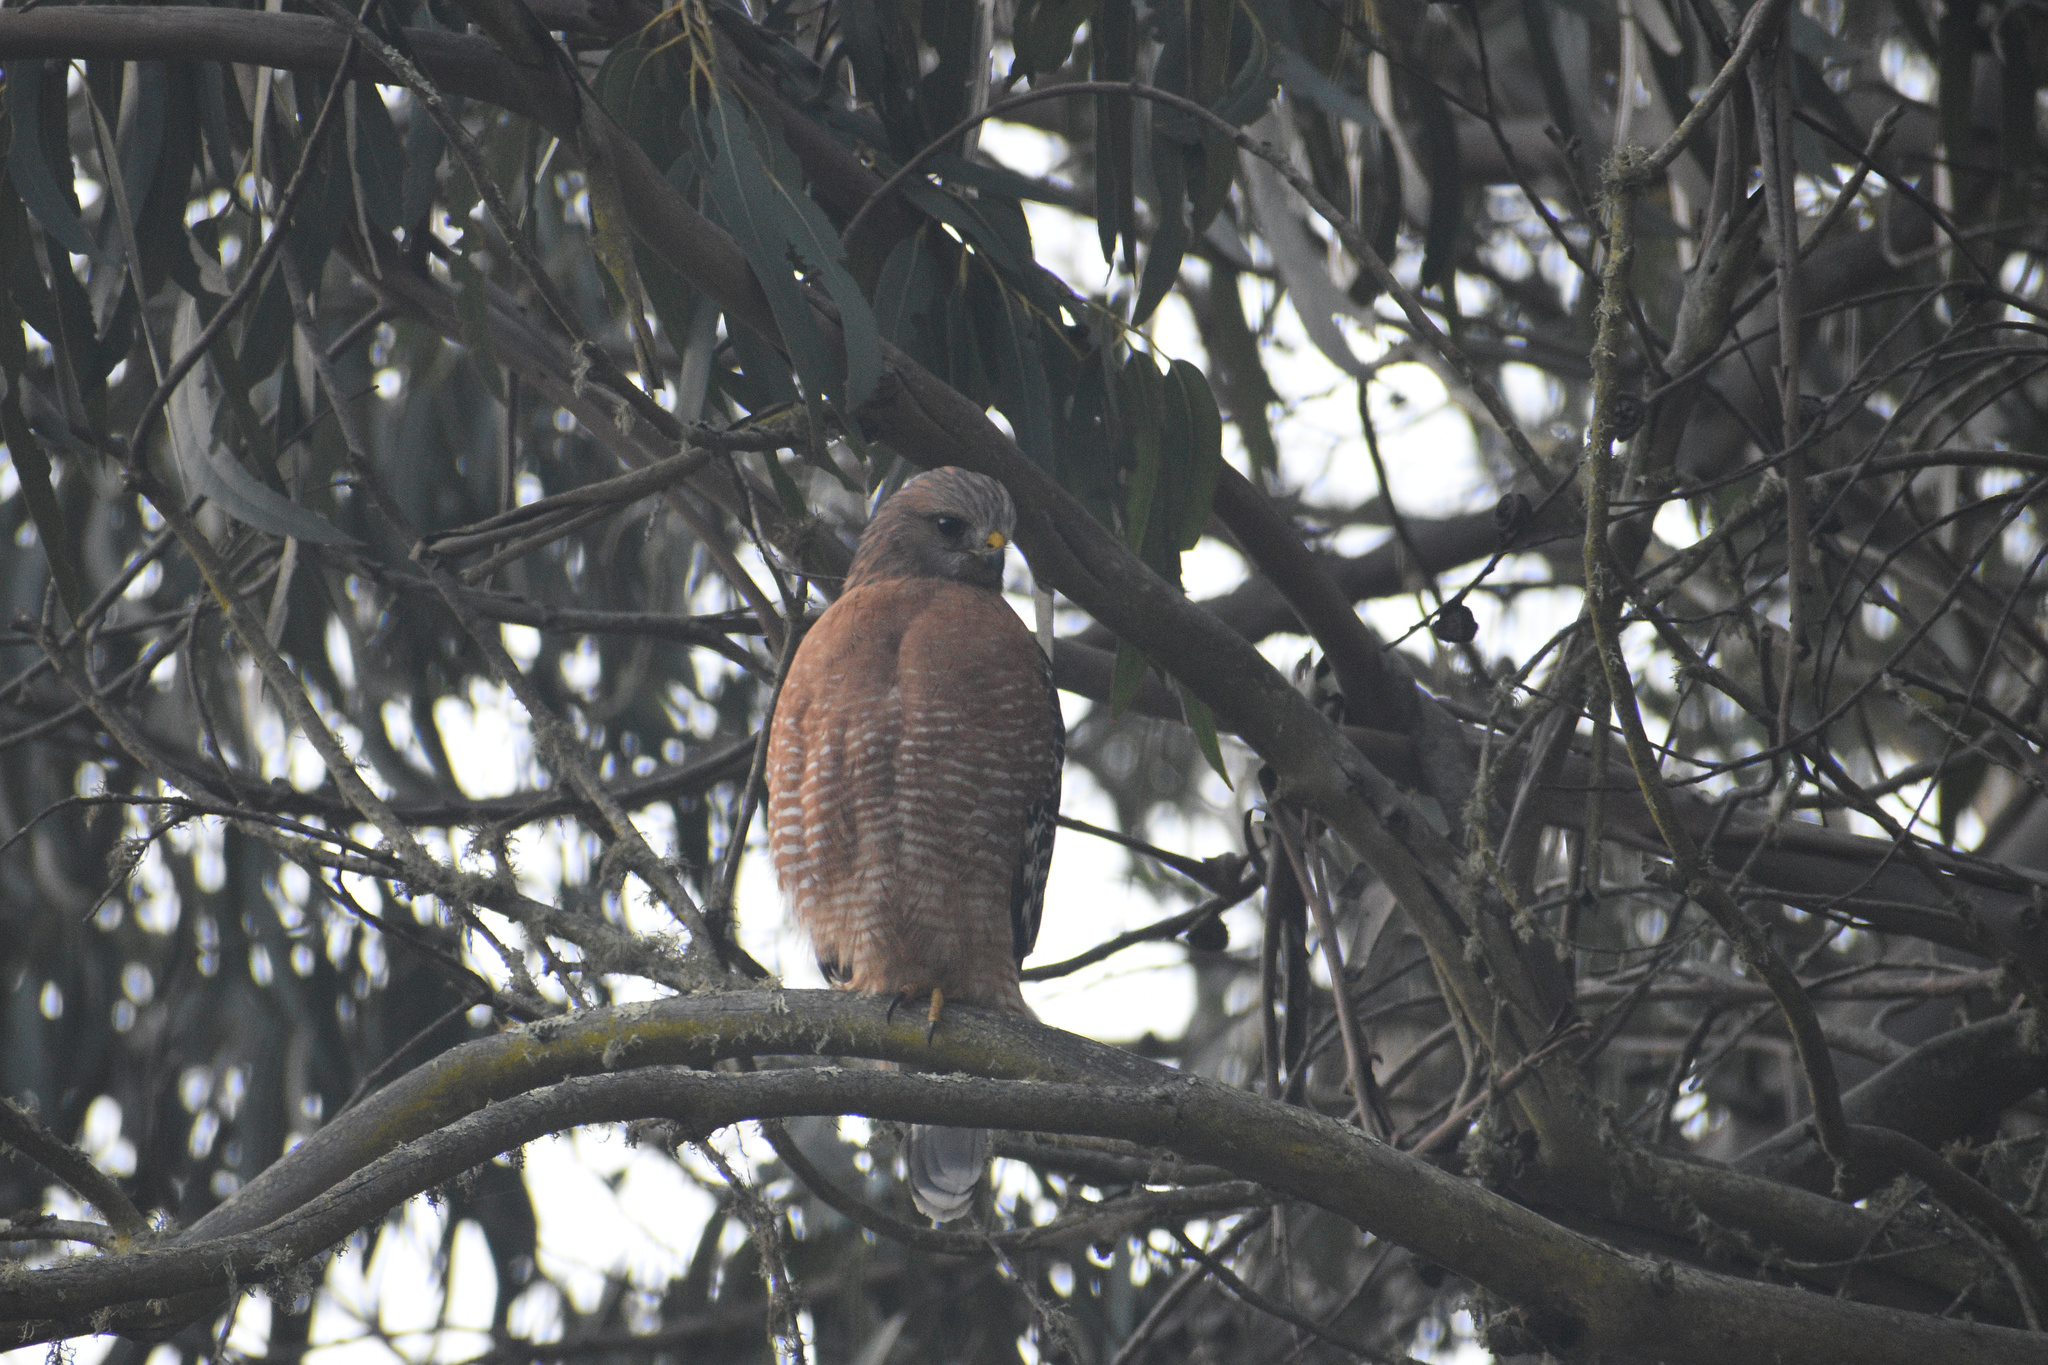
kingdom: Animalia
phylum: Chordata
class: Aves
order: Accipitriformes
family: Accipitridae
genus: Buteo
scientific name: Buteo lineatus
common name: Red-shouldered hawk
